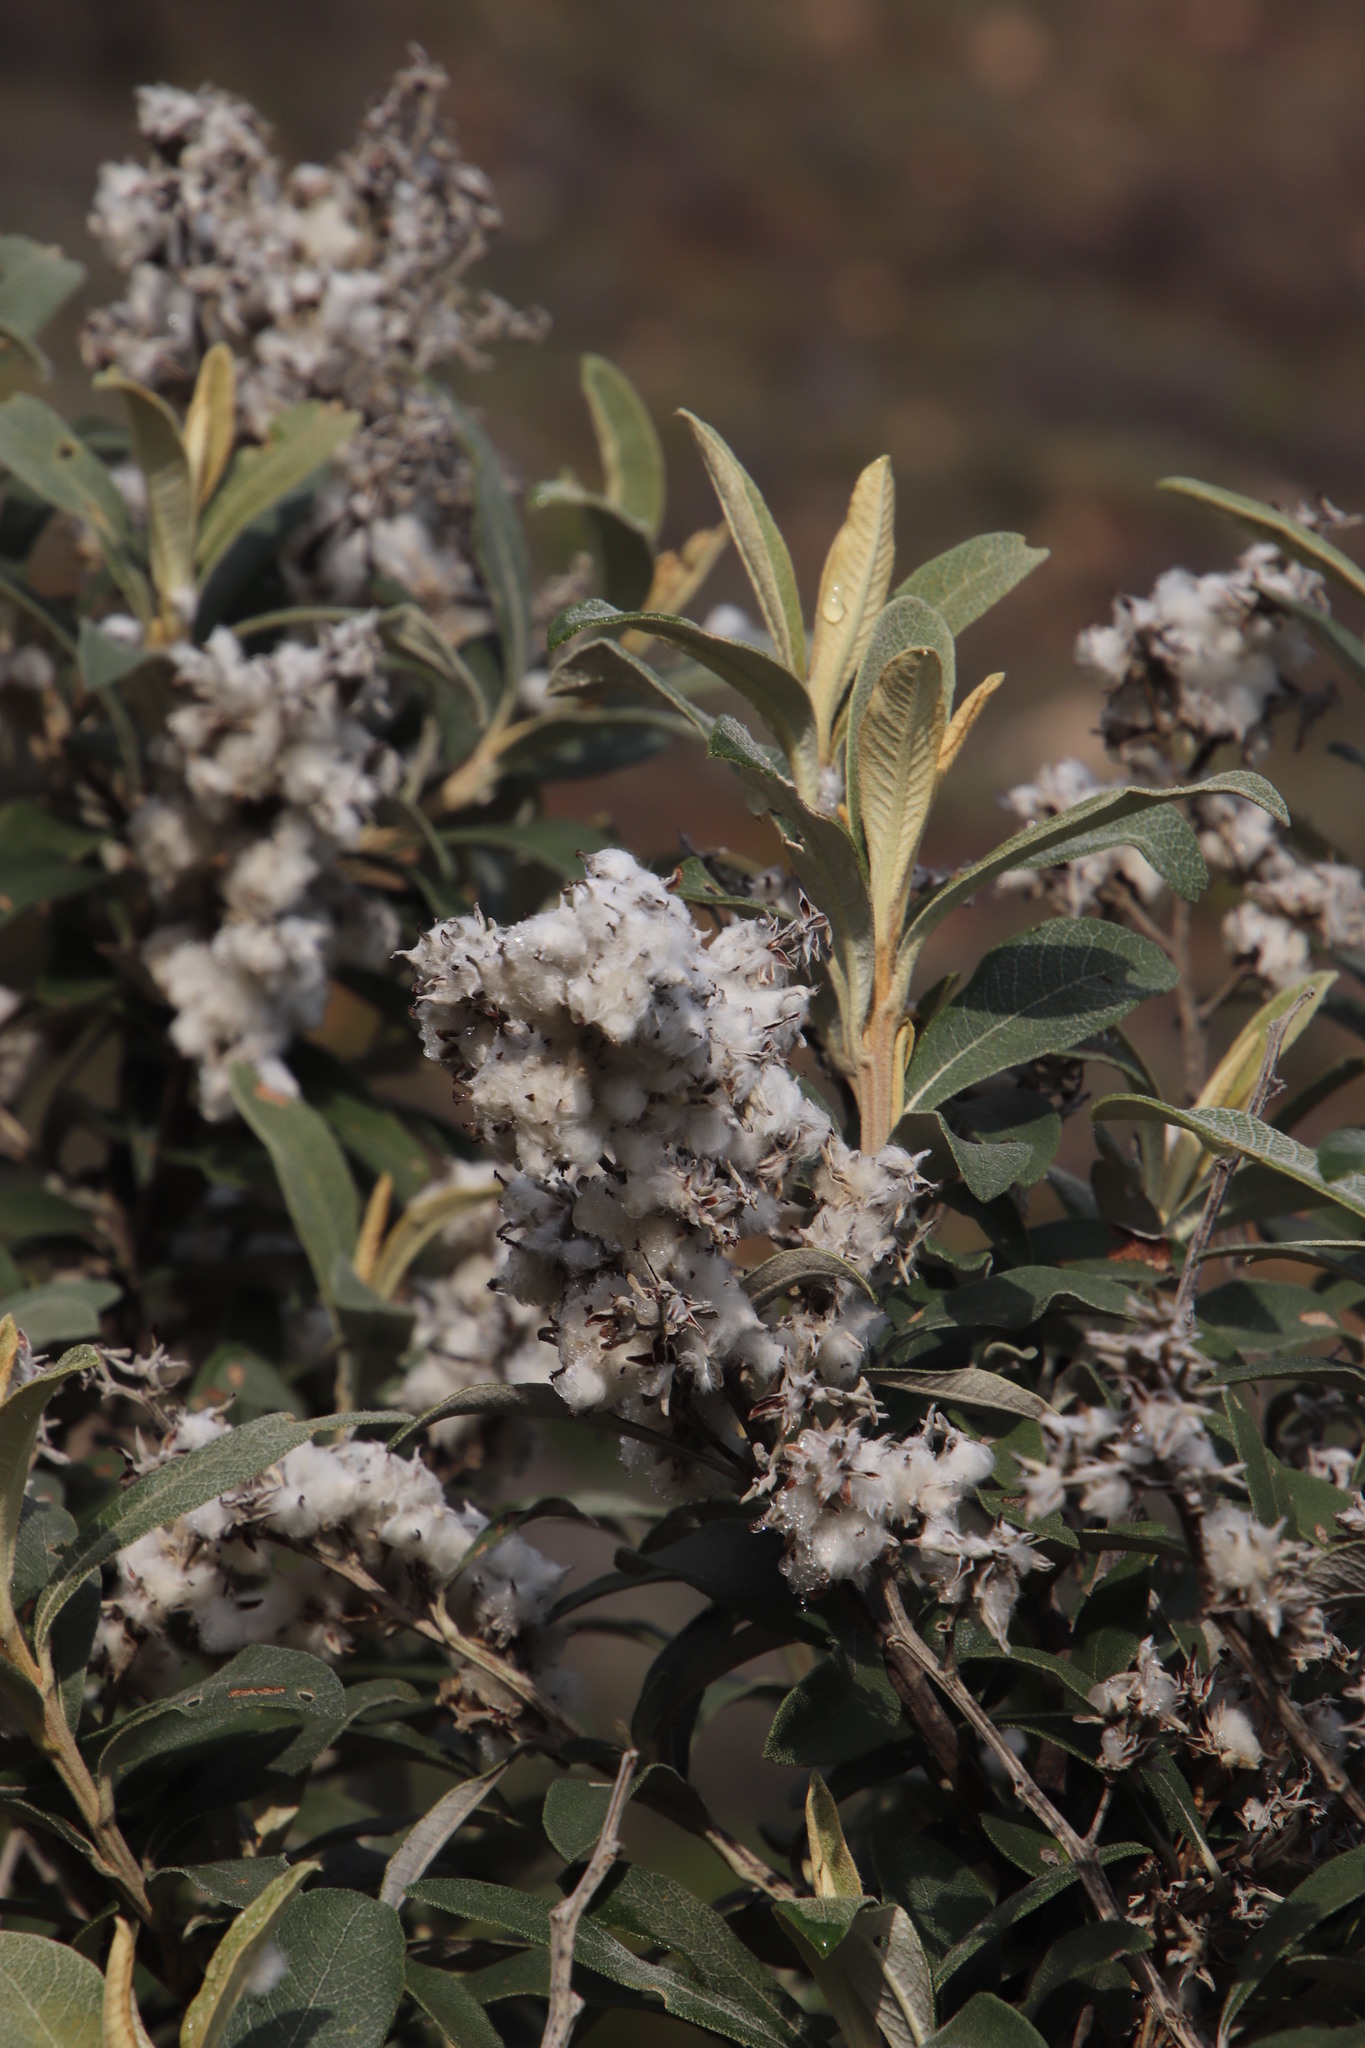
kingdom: Plantae
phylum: Tracheophyta
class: Magnoliopsida
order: Asterales
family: Asteraceae
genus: Tarchonanthus
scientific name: Tarchonanthus littoralis
